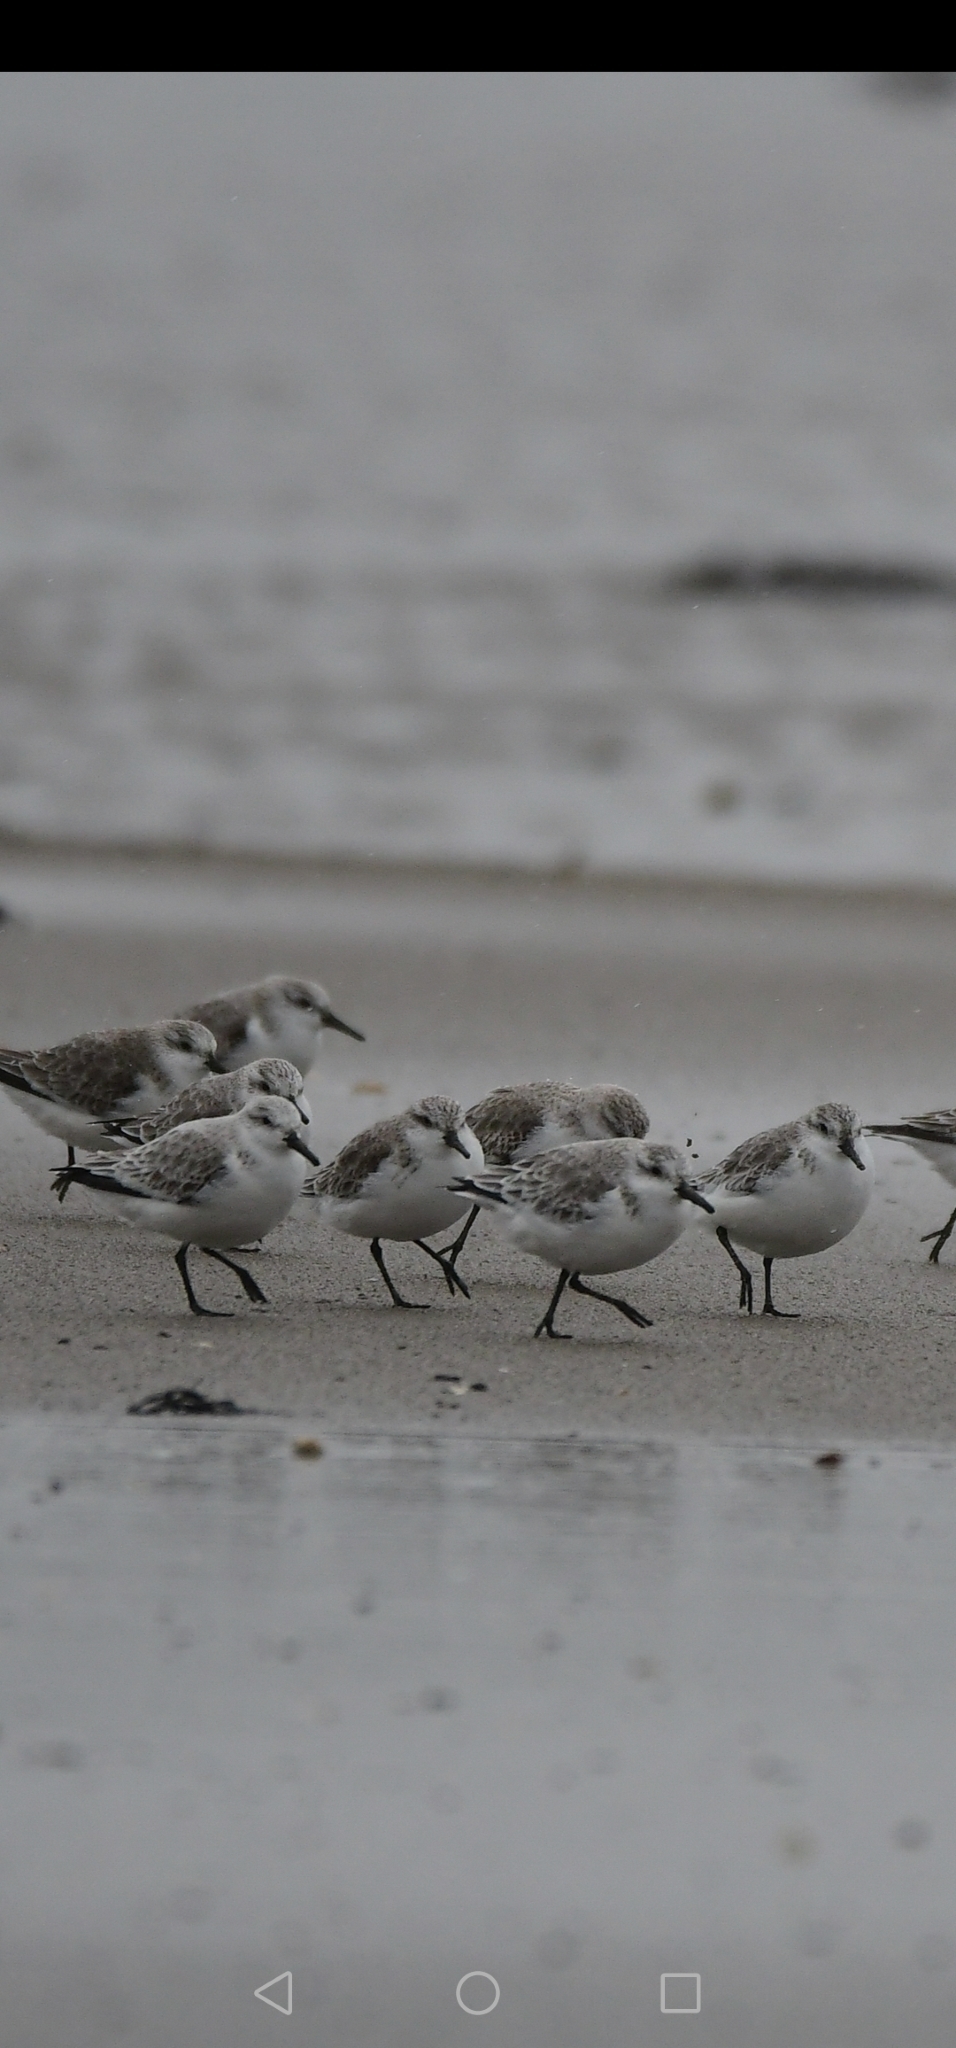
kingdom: Animalia
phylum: Chordata
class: Aves
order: Charadriiformes
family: Scolopacidae
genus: Calidris
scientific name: Calidris alba
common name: Sanderling
